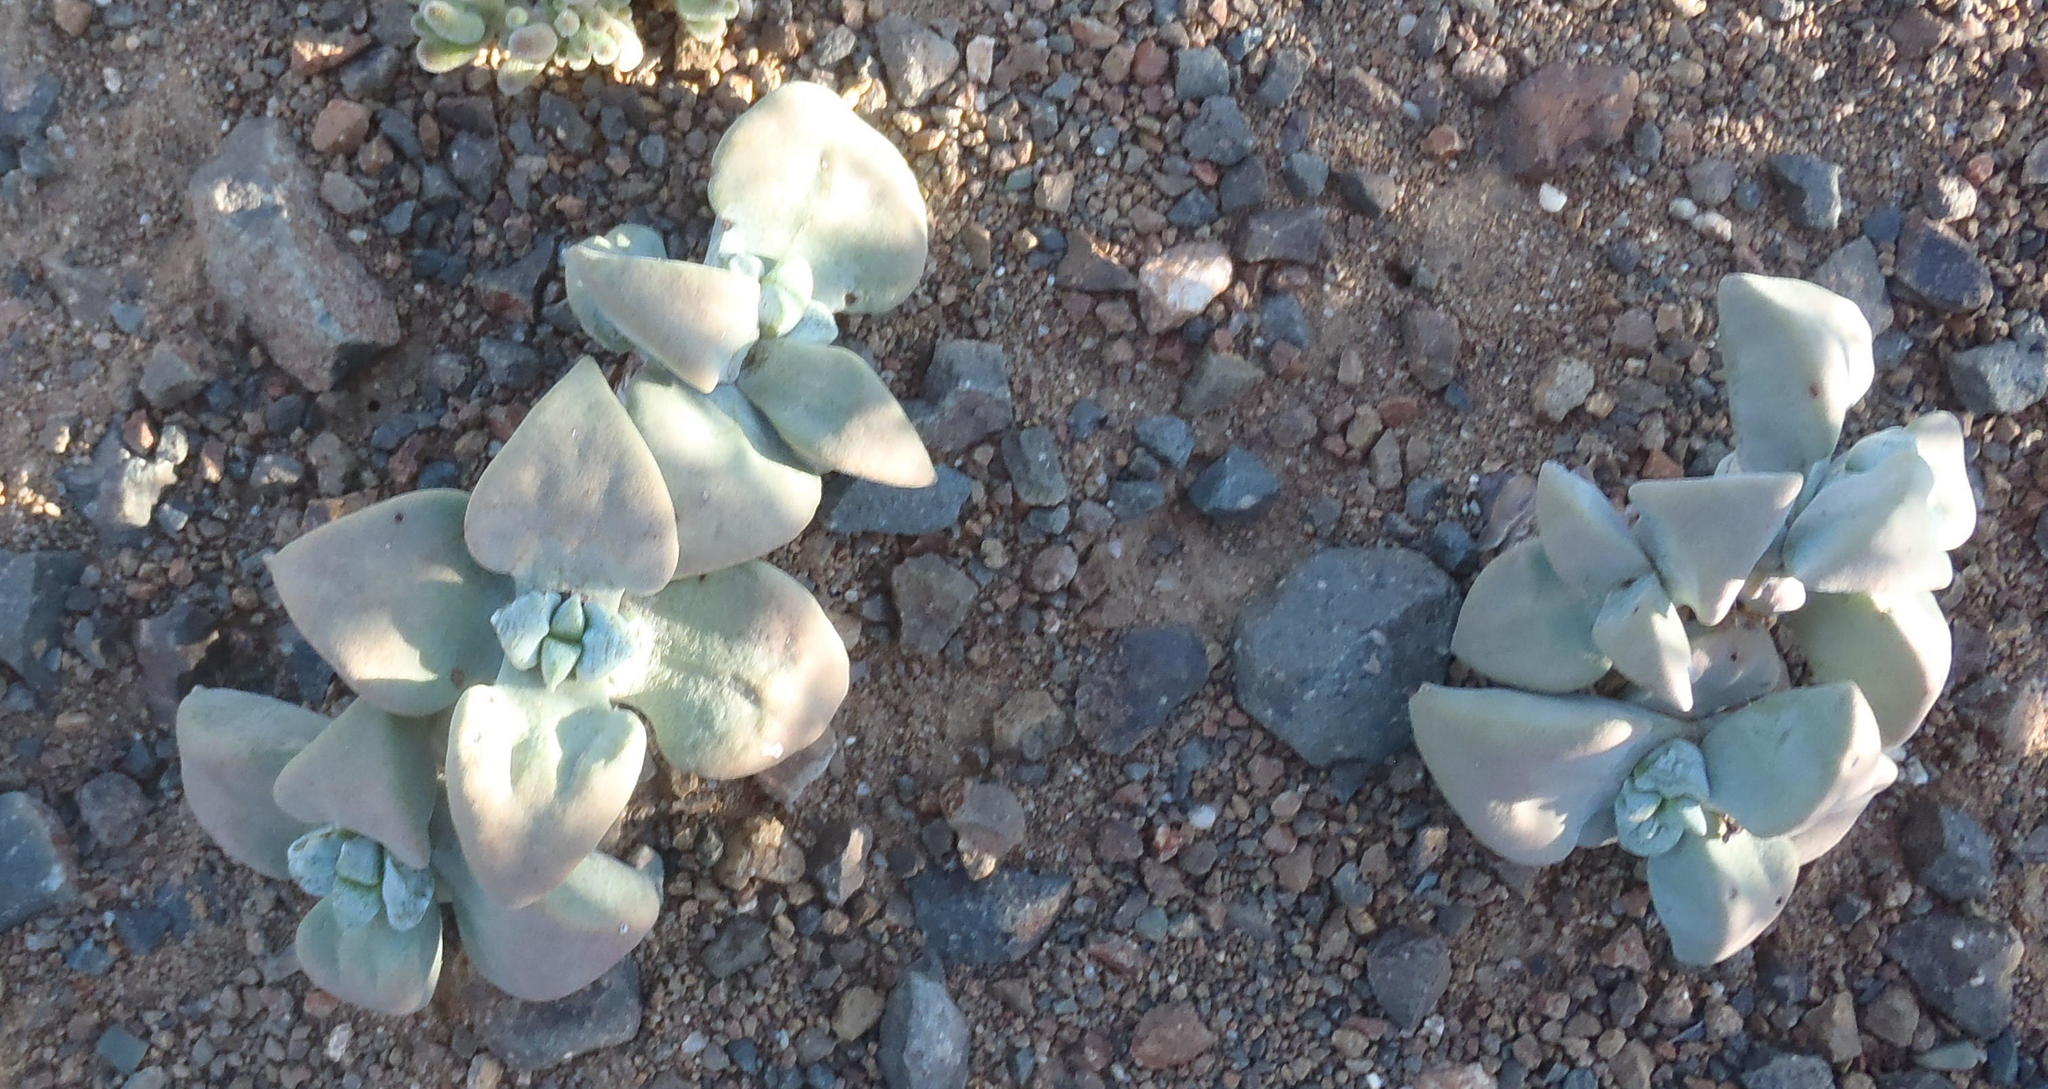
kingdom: Plantae
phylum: Tracheophyta
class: Magnoliopsida
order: Saxifragales
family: Crassulaceae
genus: Crassula
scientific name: Crassula deltoidea
